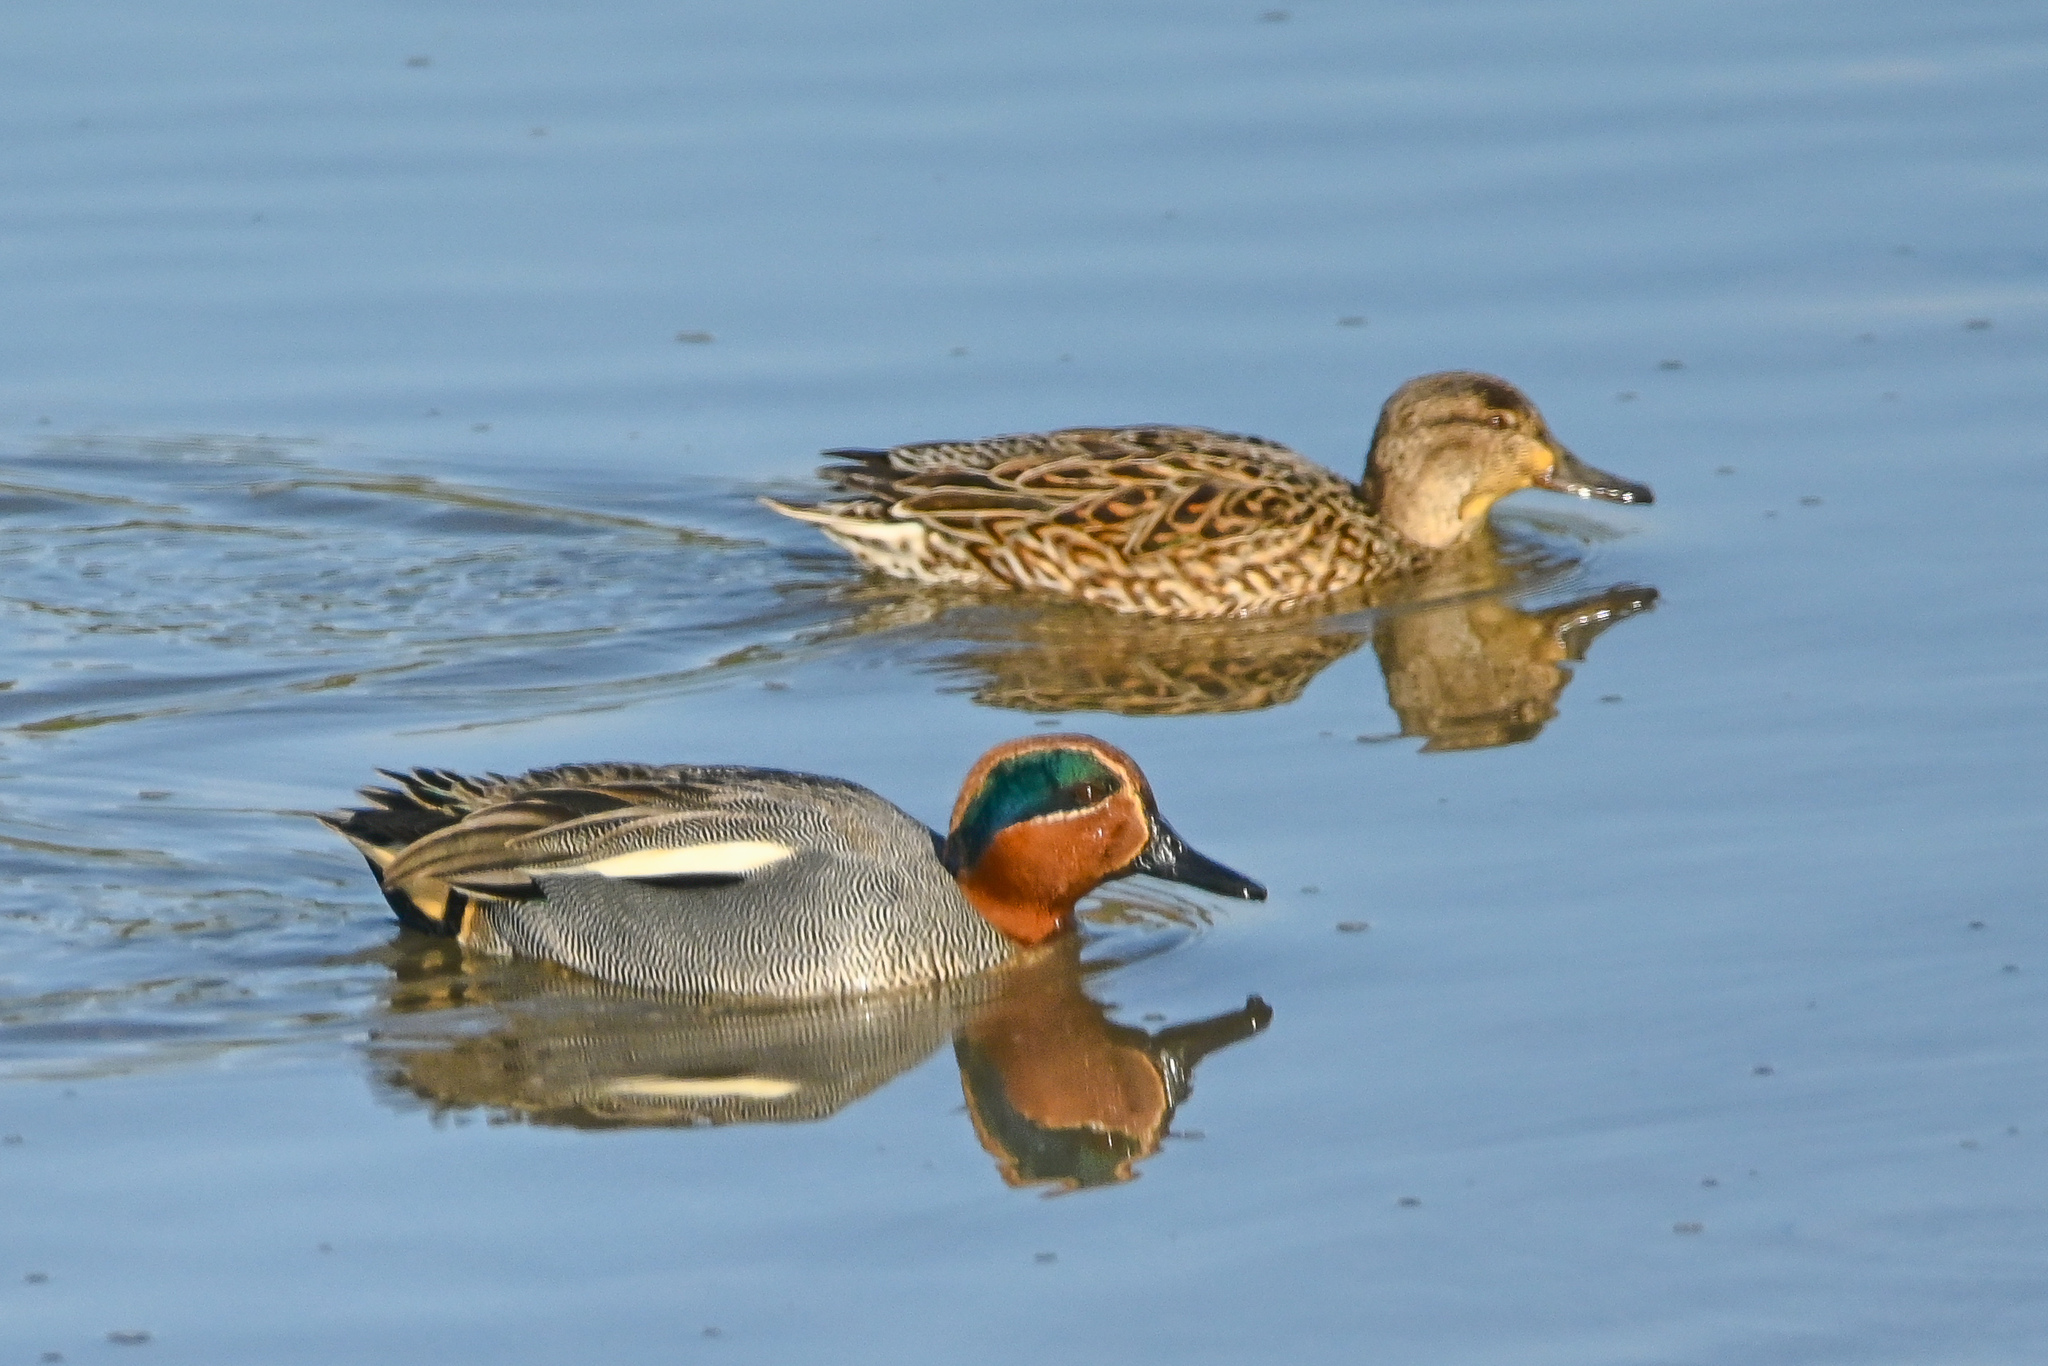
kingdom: Animalia
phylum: Chordata
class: Aves
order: Anseriformes
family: Anatidae
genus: Anas
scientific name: Anas crecca
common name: Eurasian teal
